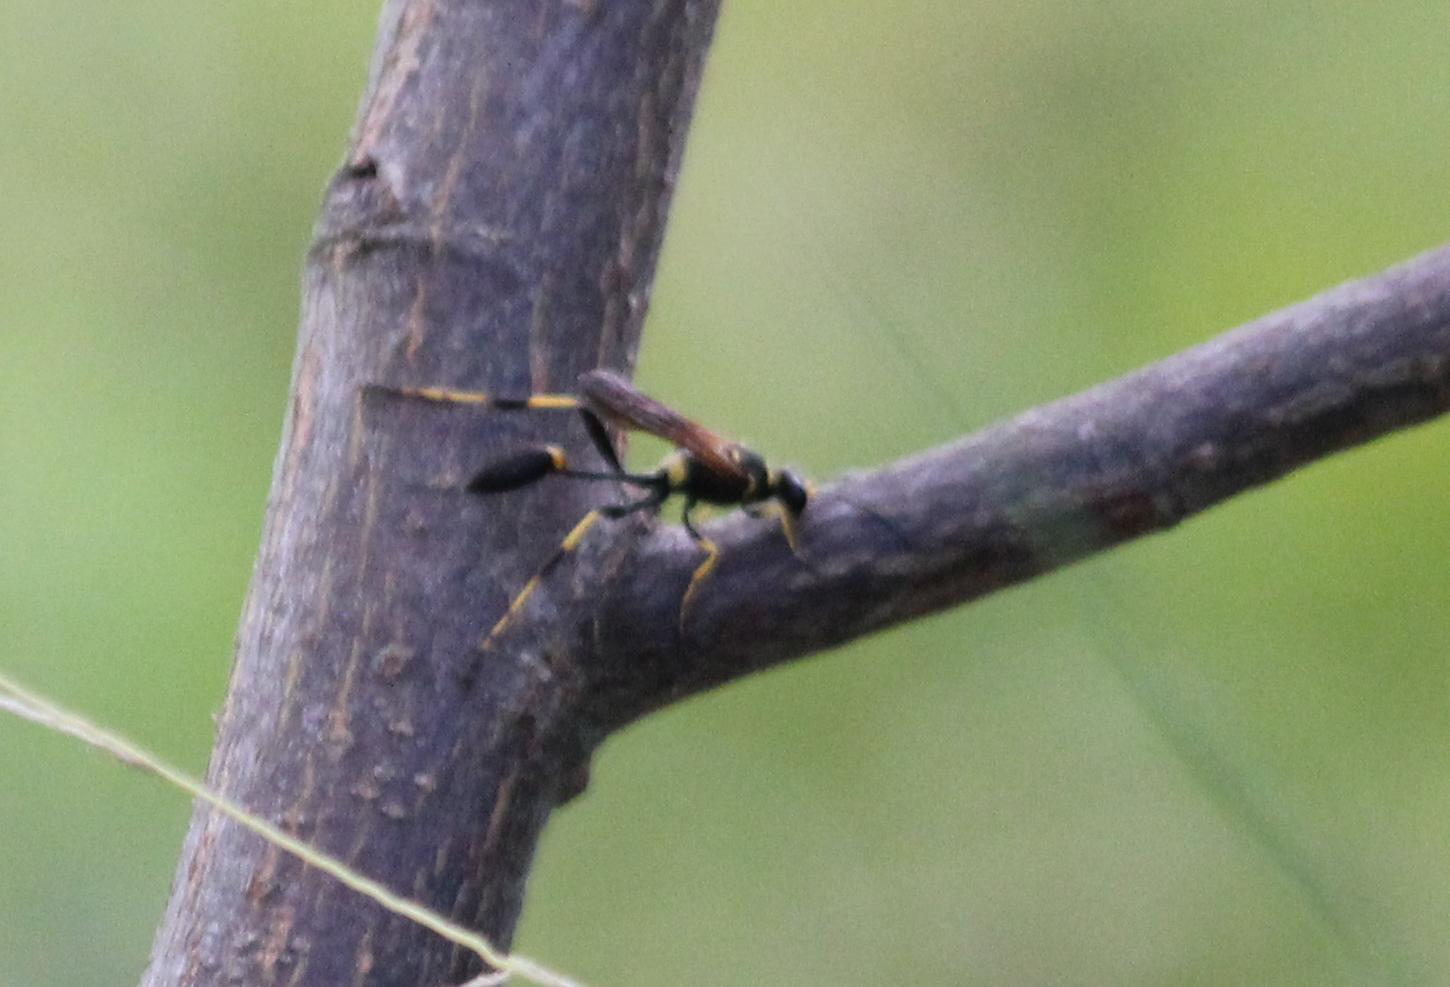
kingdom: Animalia
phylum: Arthropoda
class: Insecta
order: Hymenoptera
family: Sphecidae
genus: Sceliphron
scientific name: Sceliphron caementarium
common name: Mud dauber
